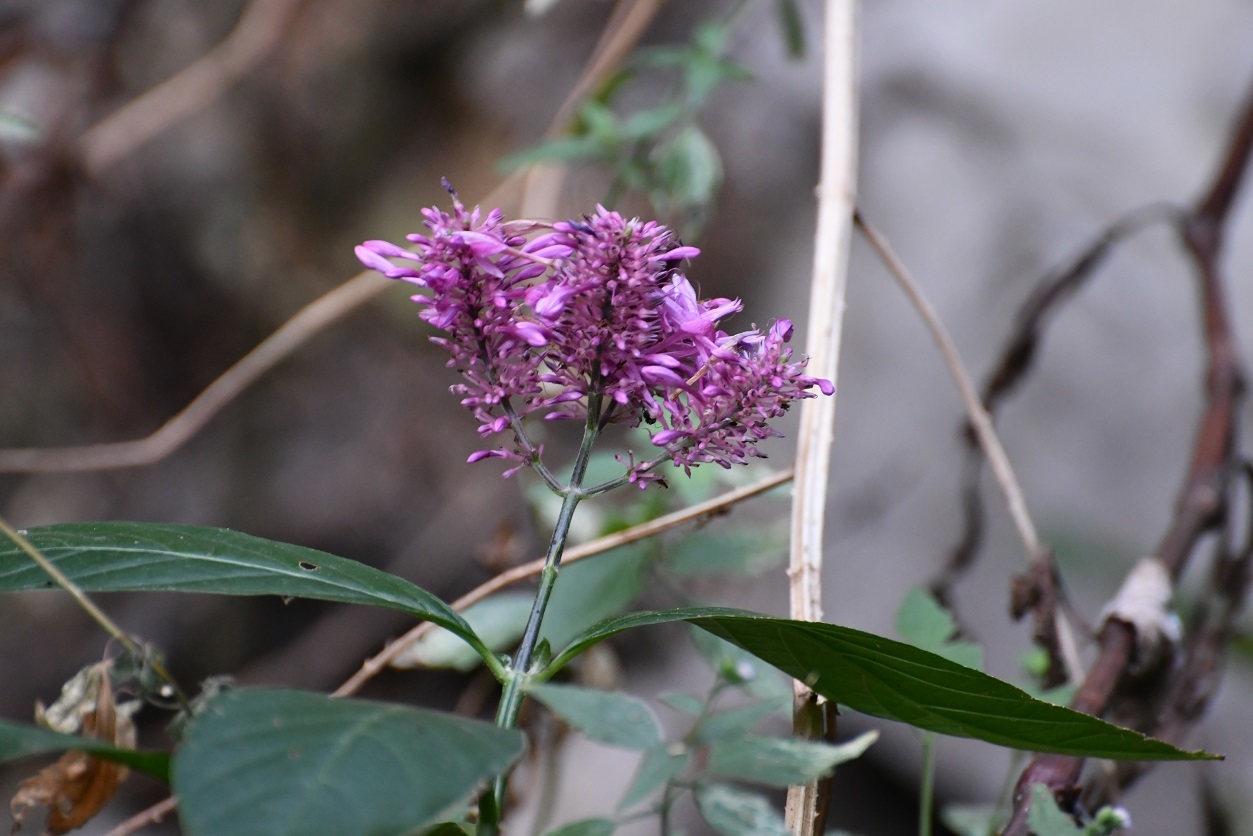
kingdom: Plantae
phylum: Tracheophyta
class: Magnoliopsida
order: Lamiales
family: Acanthaceae
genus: Odontonema
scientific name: Odontonema callistachyum
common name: Firespike
